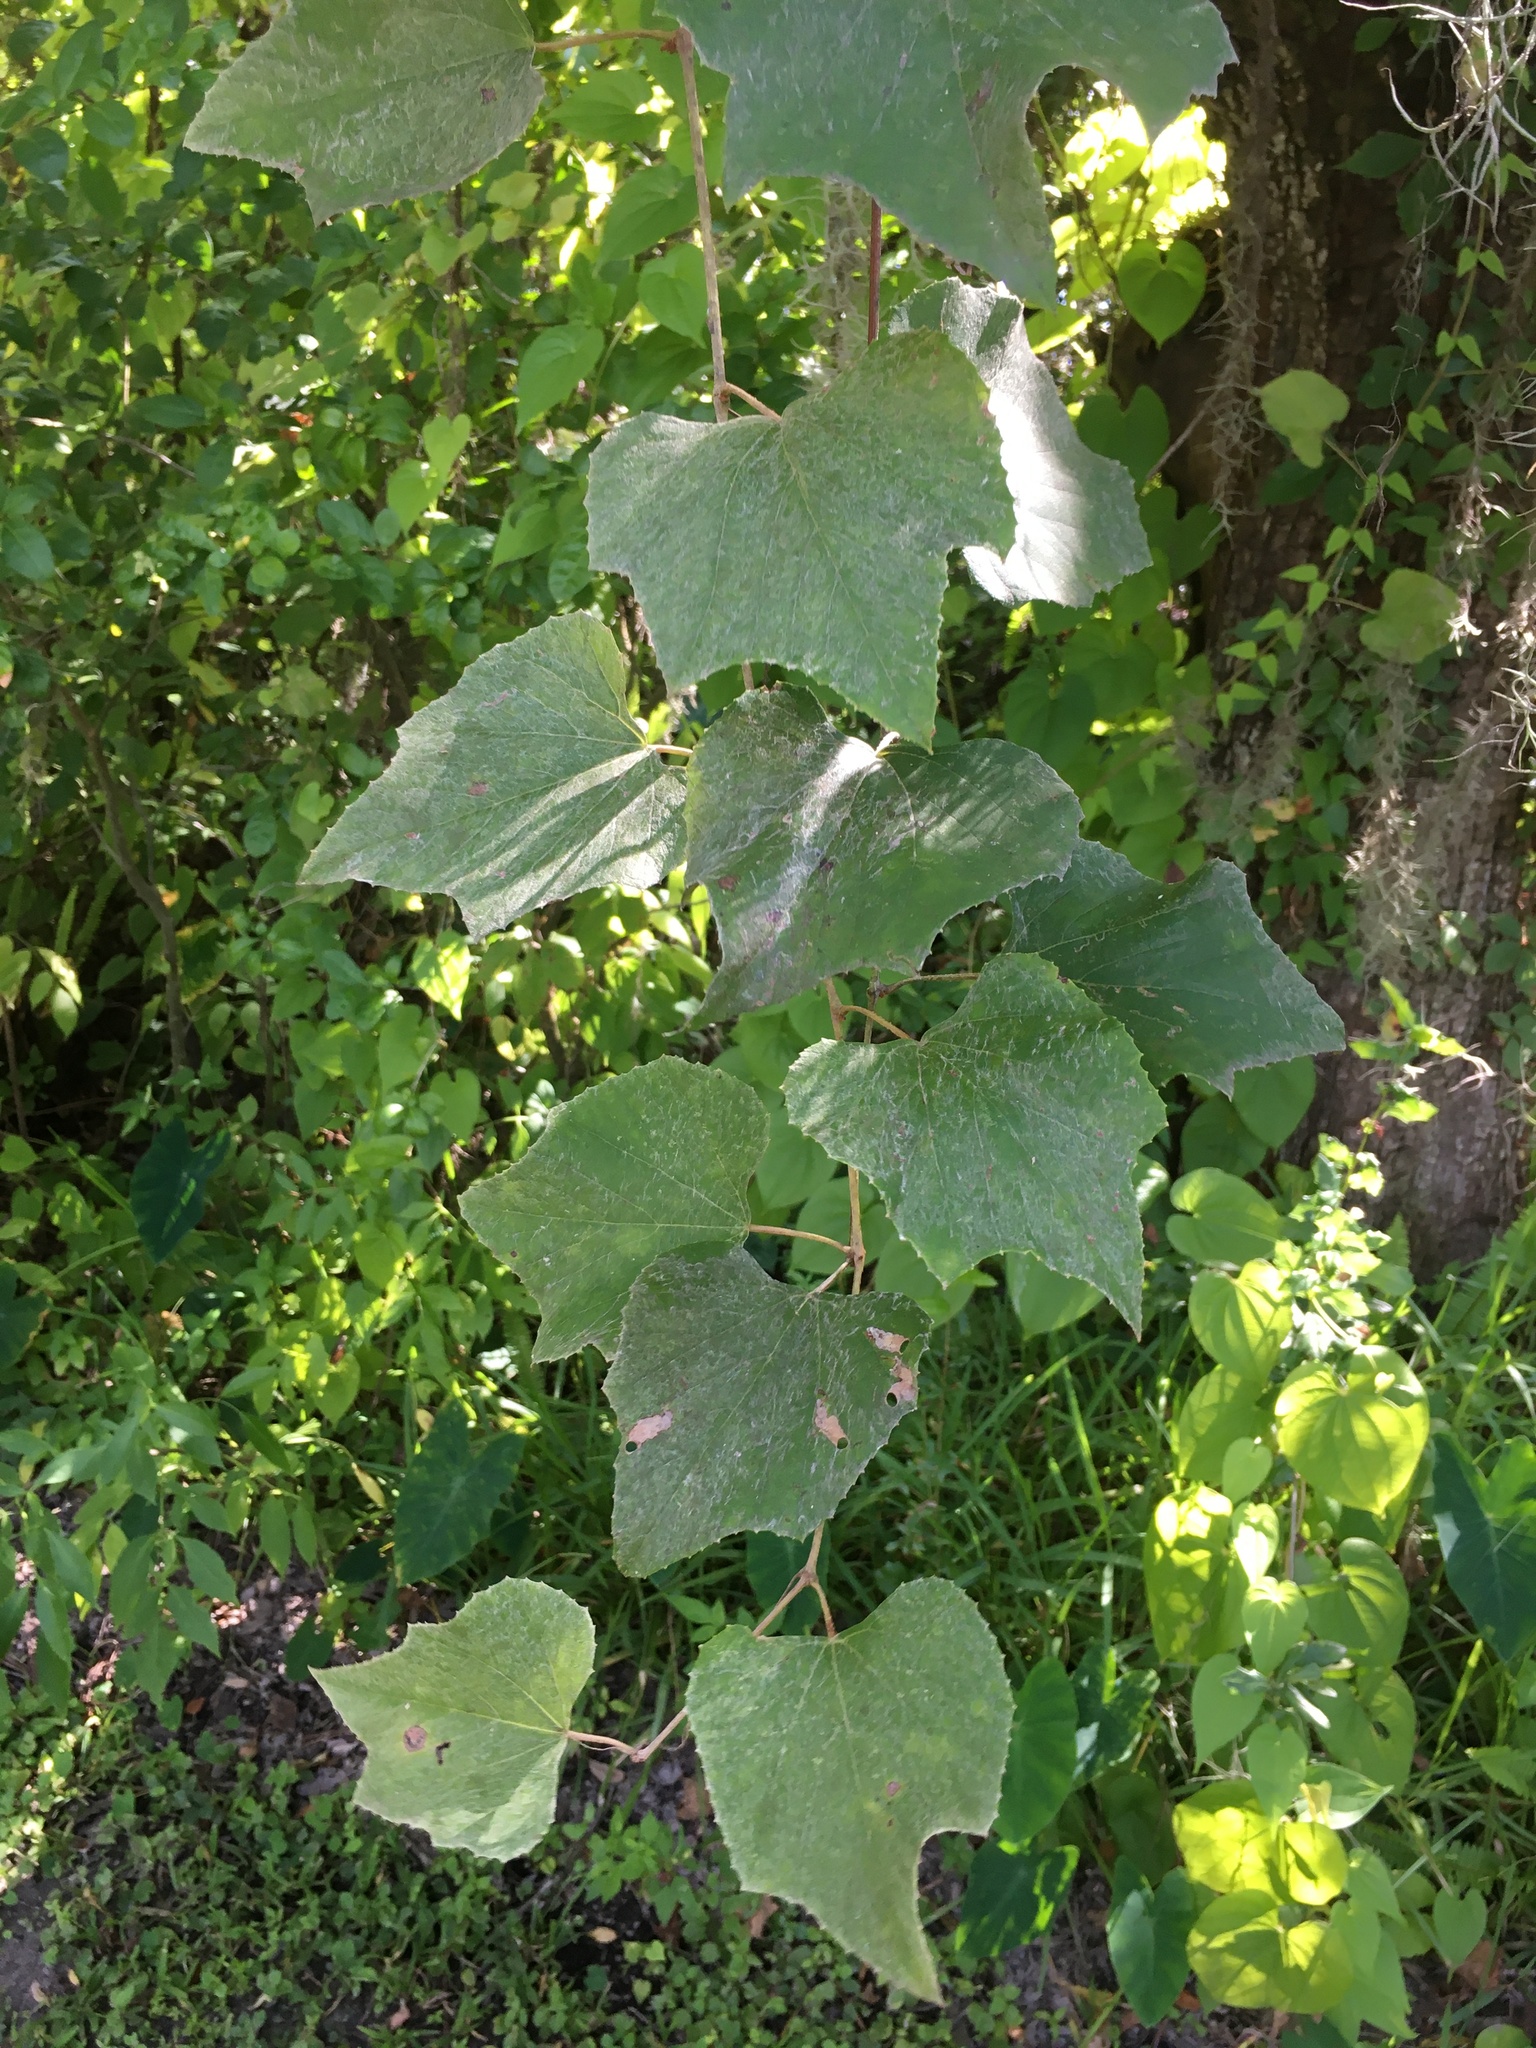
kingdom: Plantae
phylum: Tracheophyta
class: Magnoliopsida
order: Vitales
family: Vitaceae
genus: Vitis
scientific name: Vitis cinerea
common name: Ashy grape
